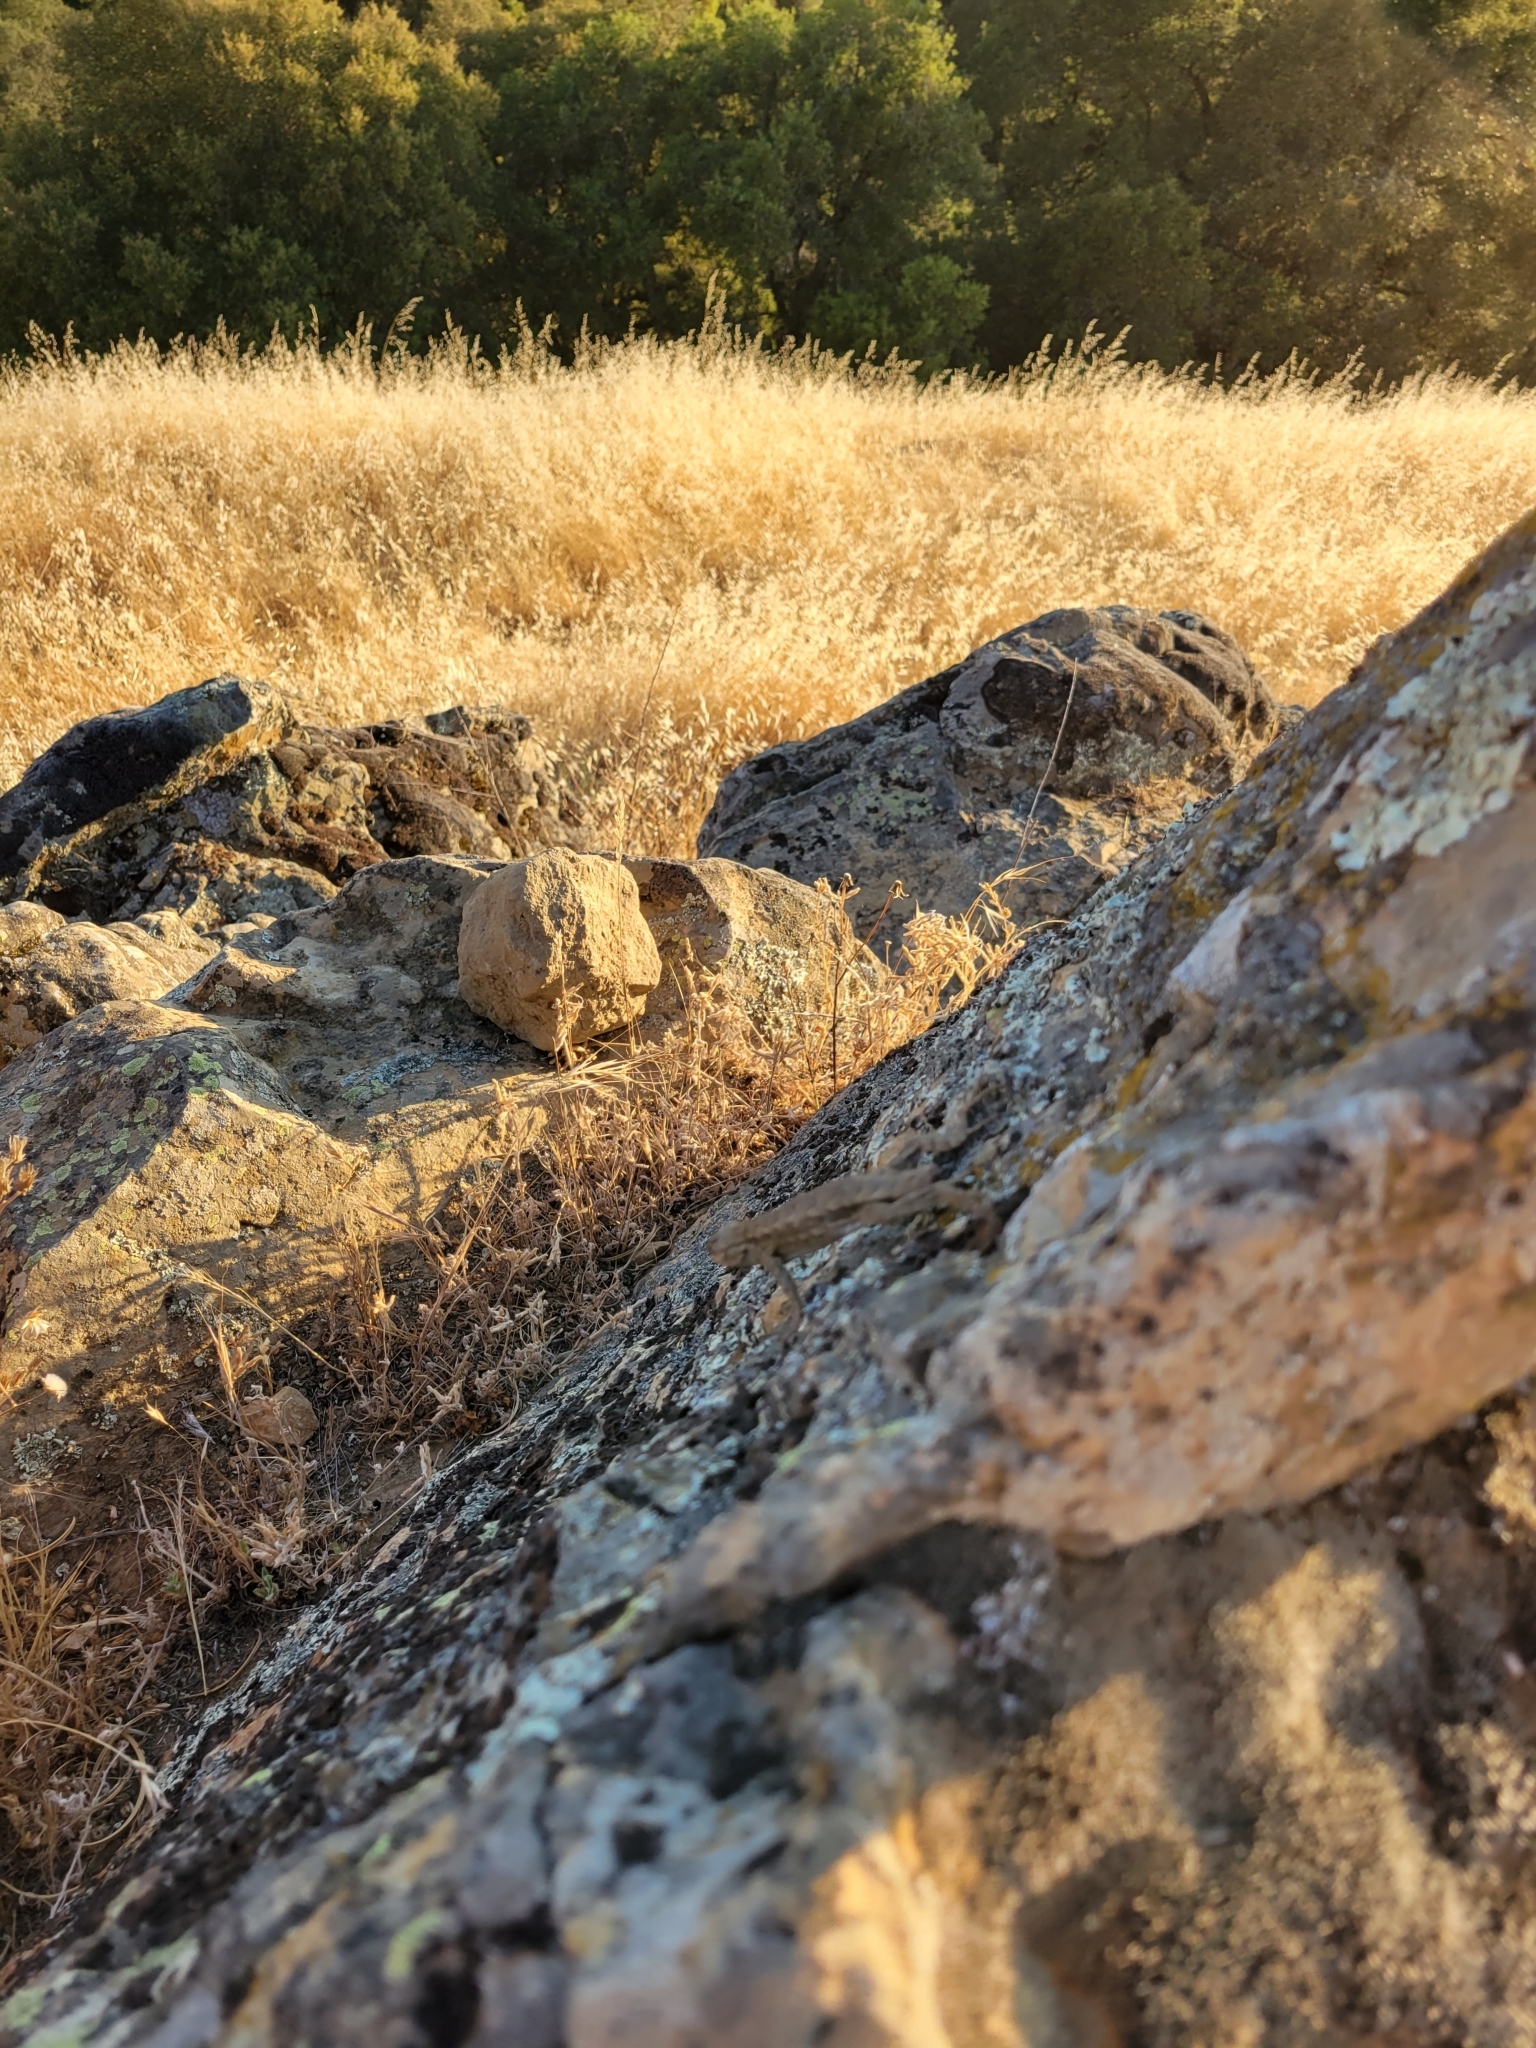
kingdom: Animalia
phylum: Chordata
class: Squamata
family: Phrynosomatidae
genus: Sceloporus
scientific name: Sceloporus occidentalis
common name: Western fence lizard
